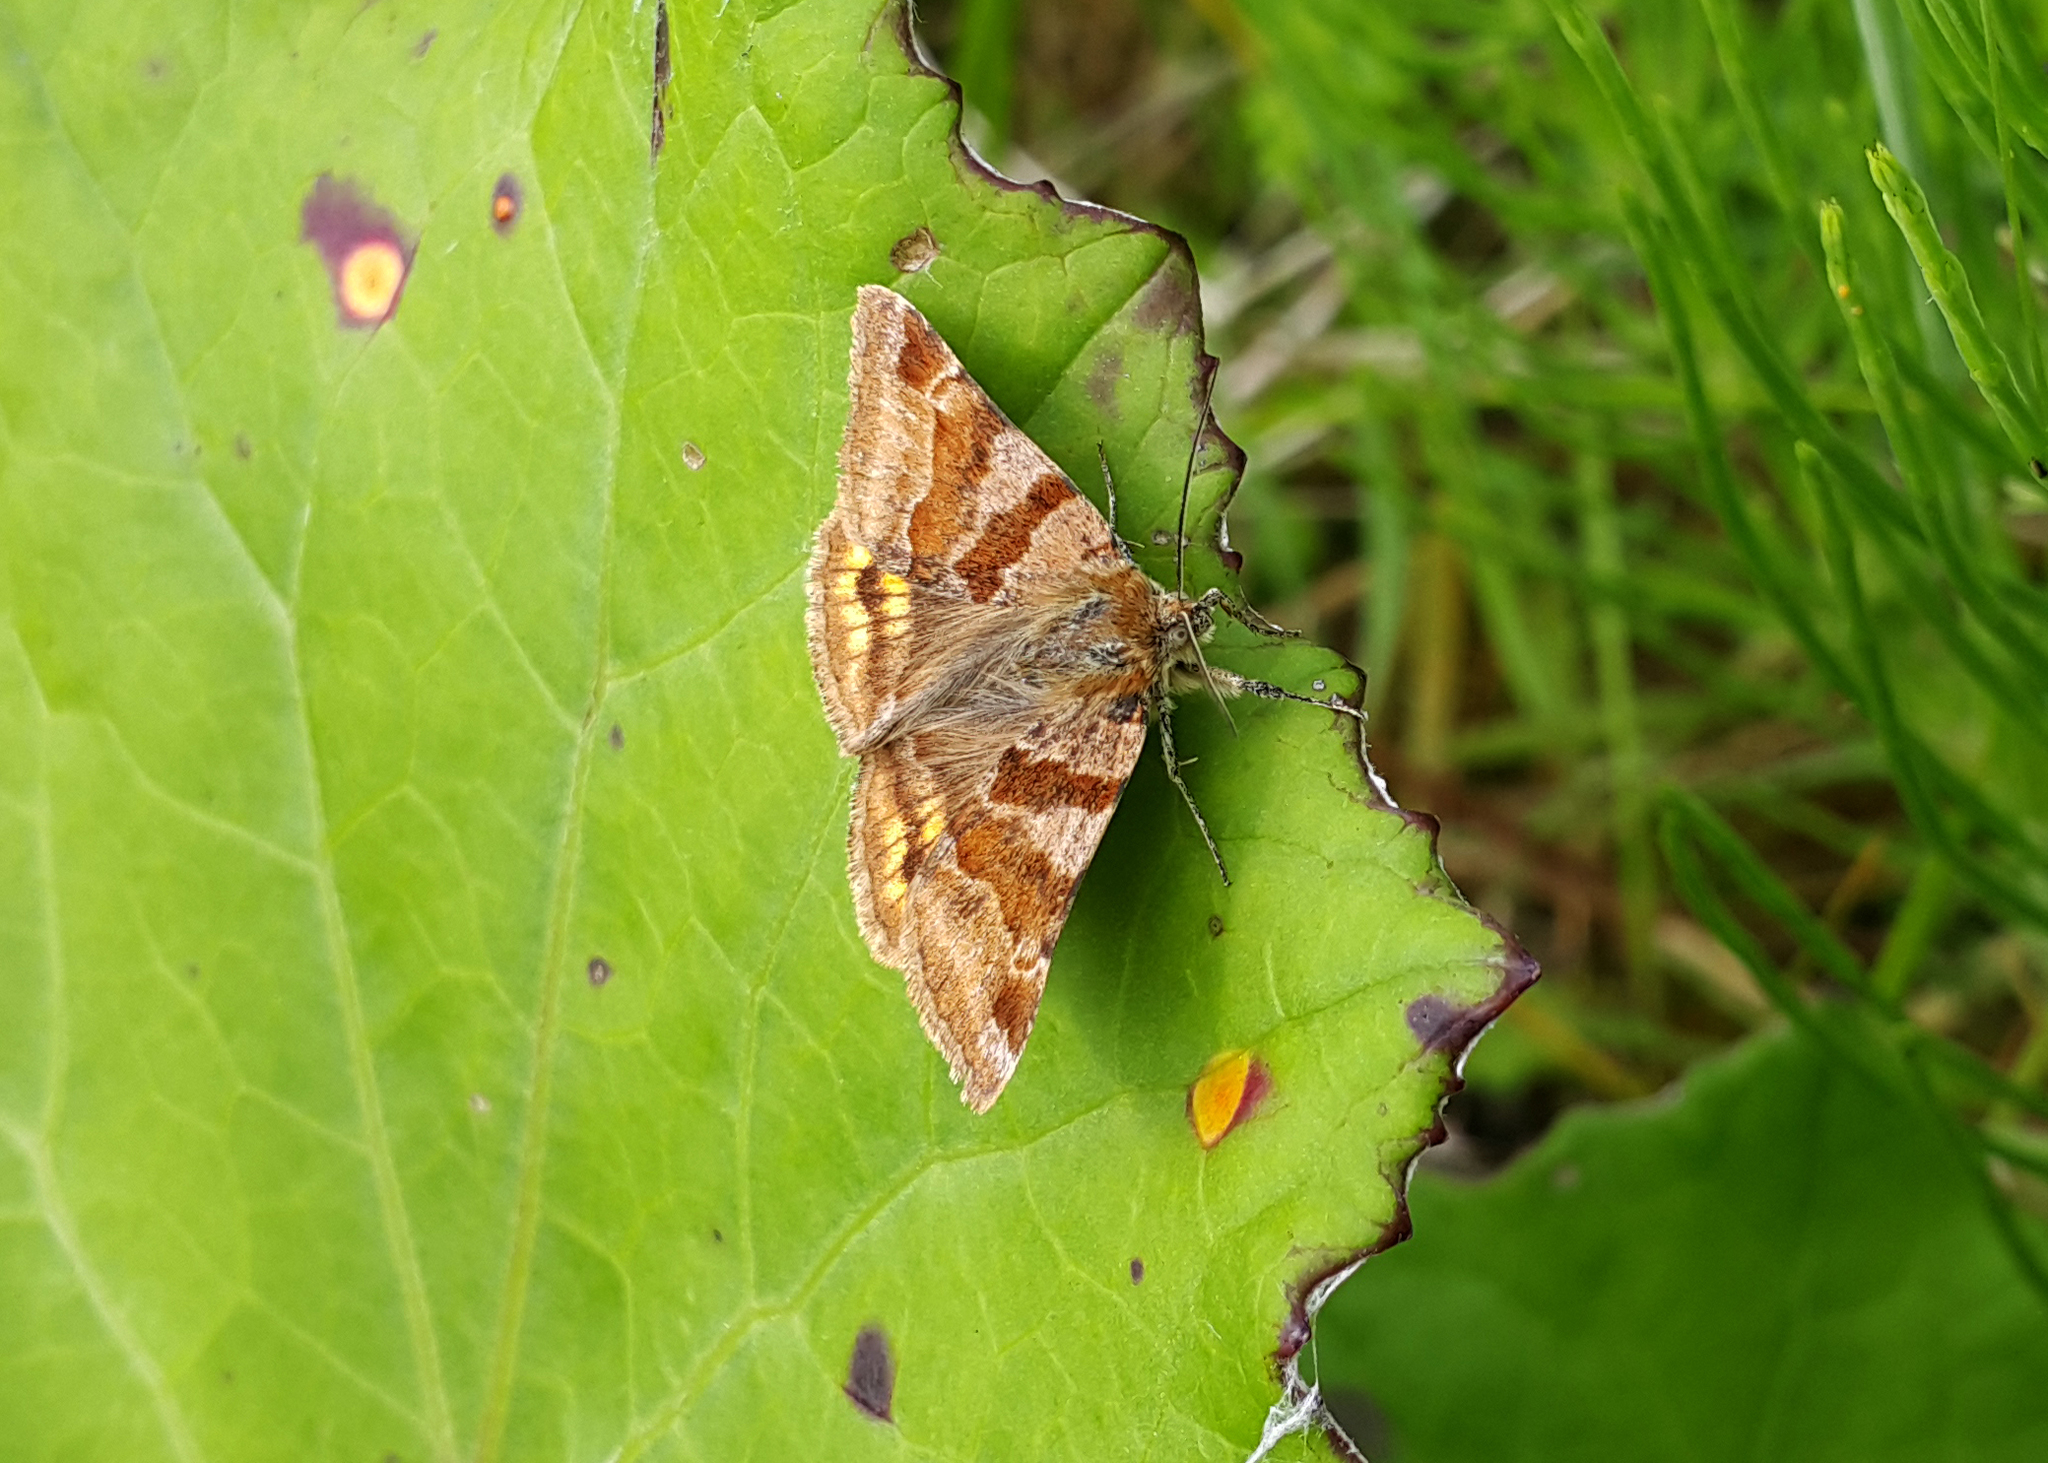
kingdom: Animalia
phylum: Arthropoda
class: Insecta
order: Lepidoptera
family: Erebidae
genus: Euclidia
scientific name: Euclidia glyphica
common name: Burnet companion
